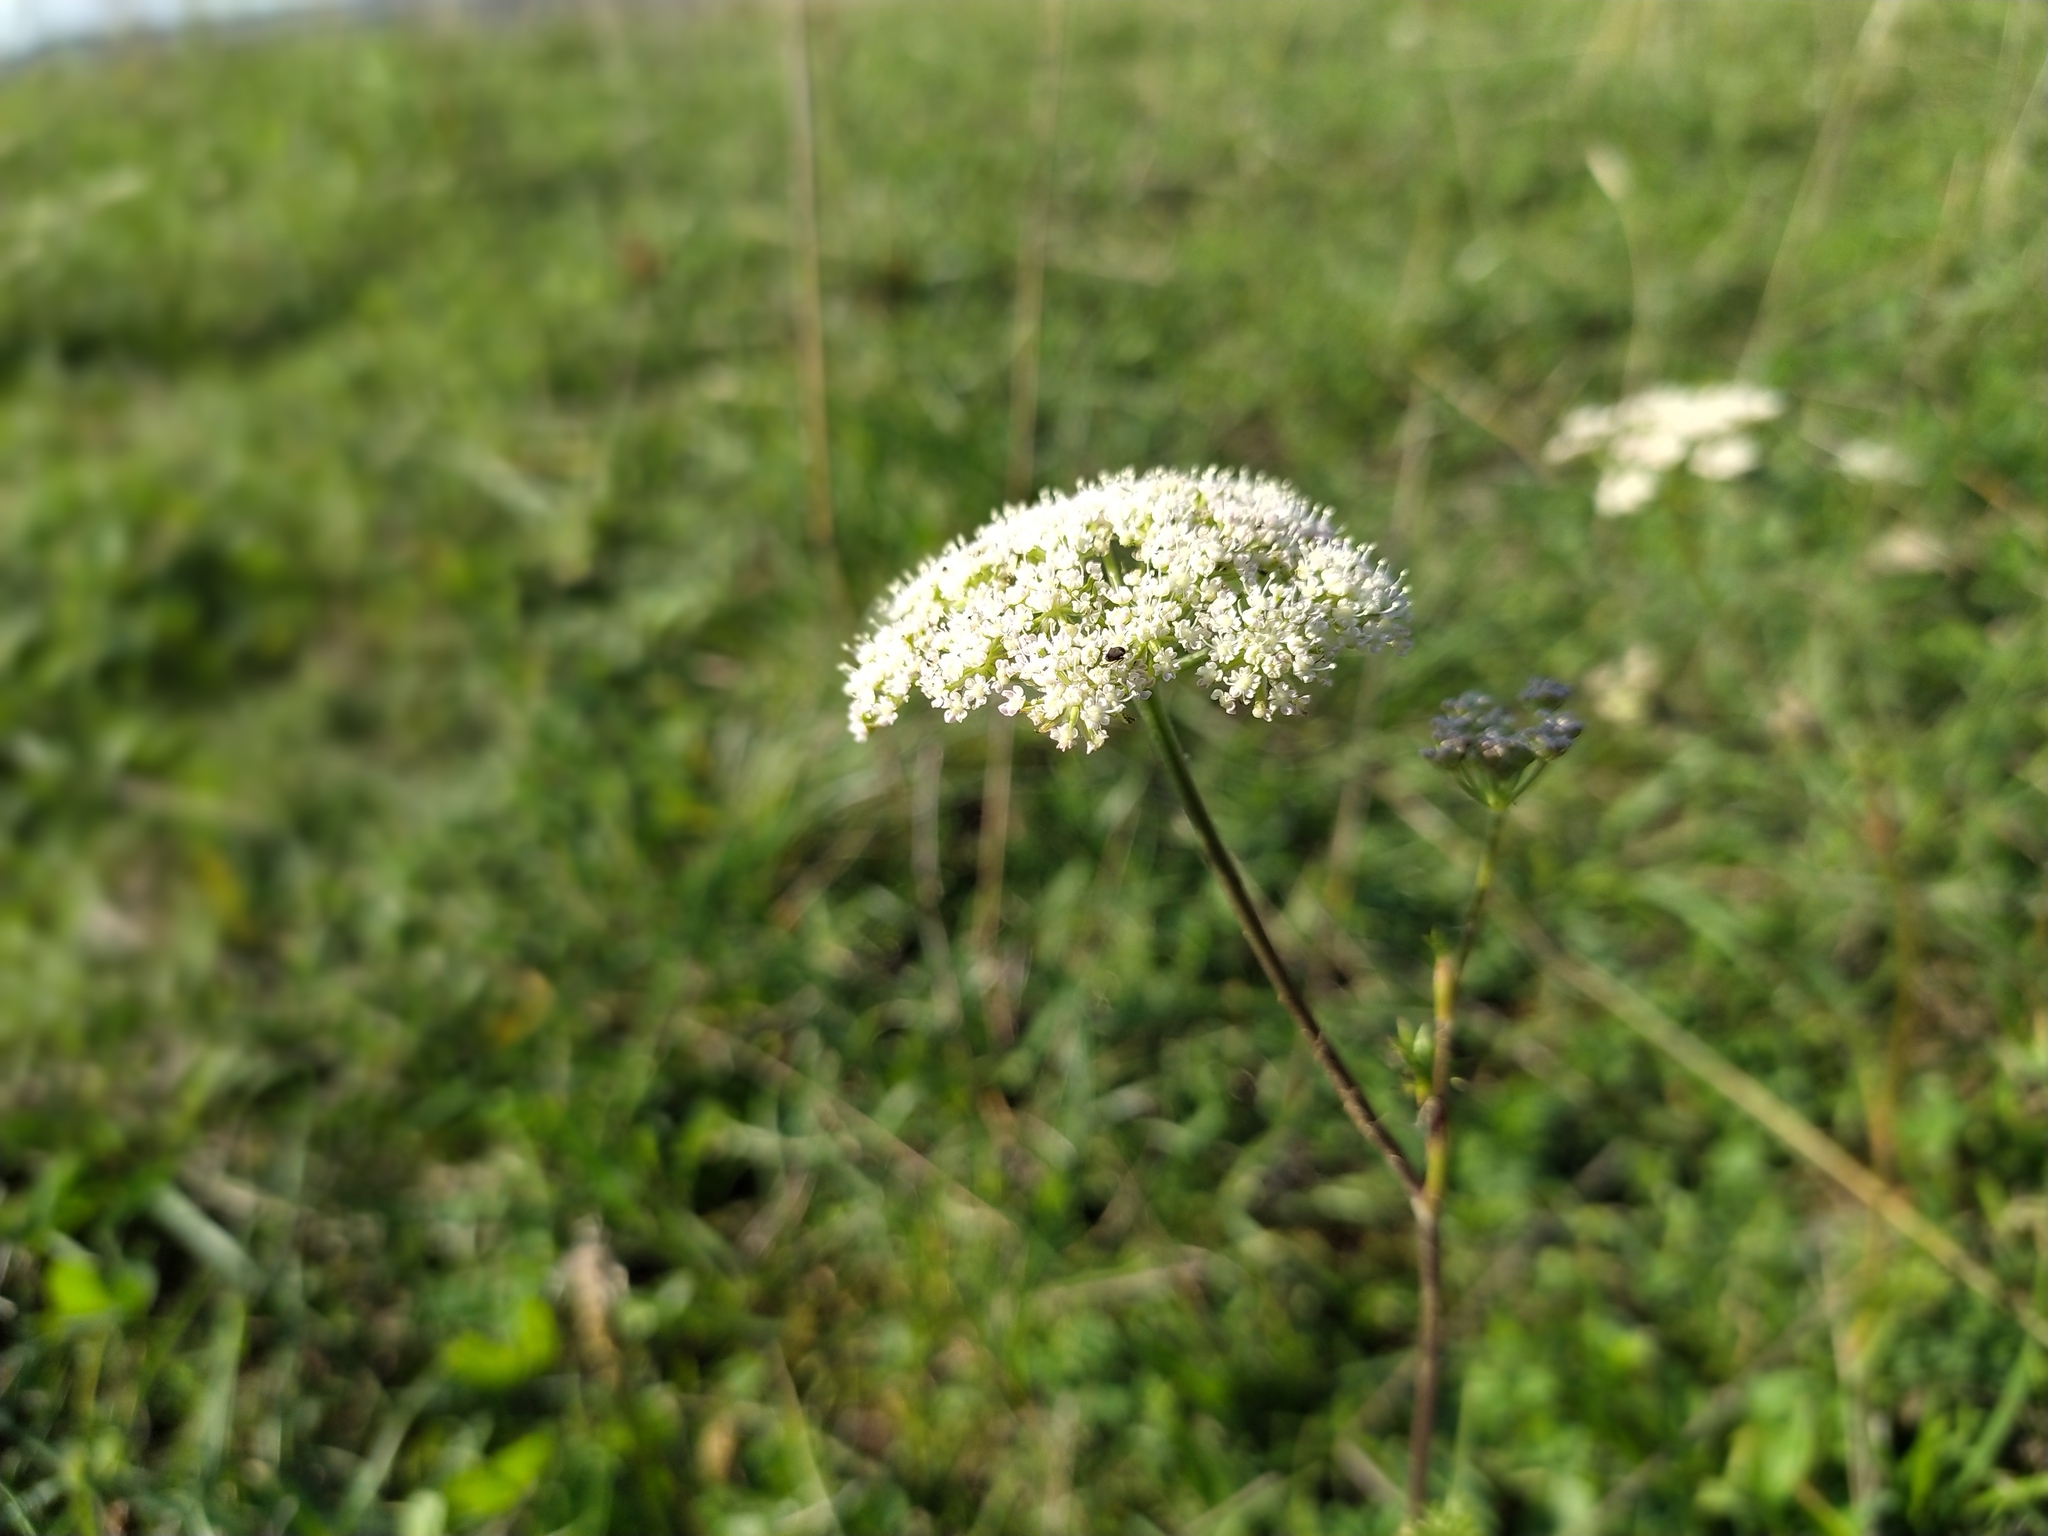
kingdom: Plantae
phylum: Tracheophyta
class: Magnoliopsida
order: Apiales
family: Apiaceae
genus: Seseli
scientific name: Seseli annuum
